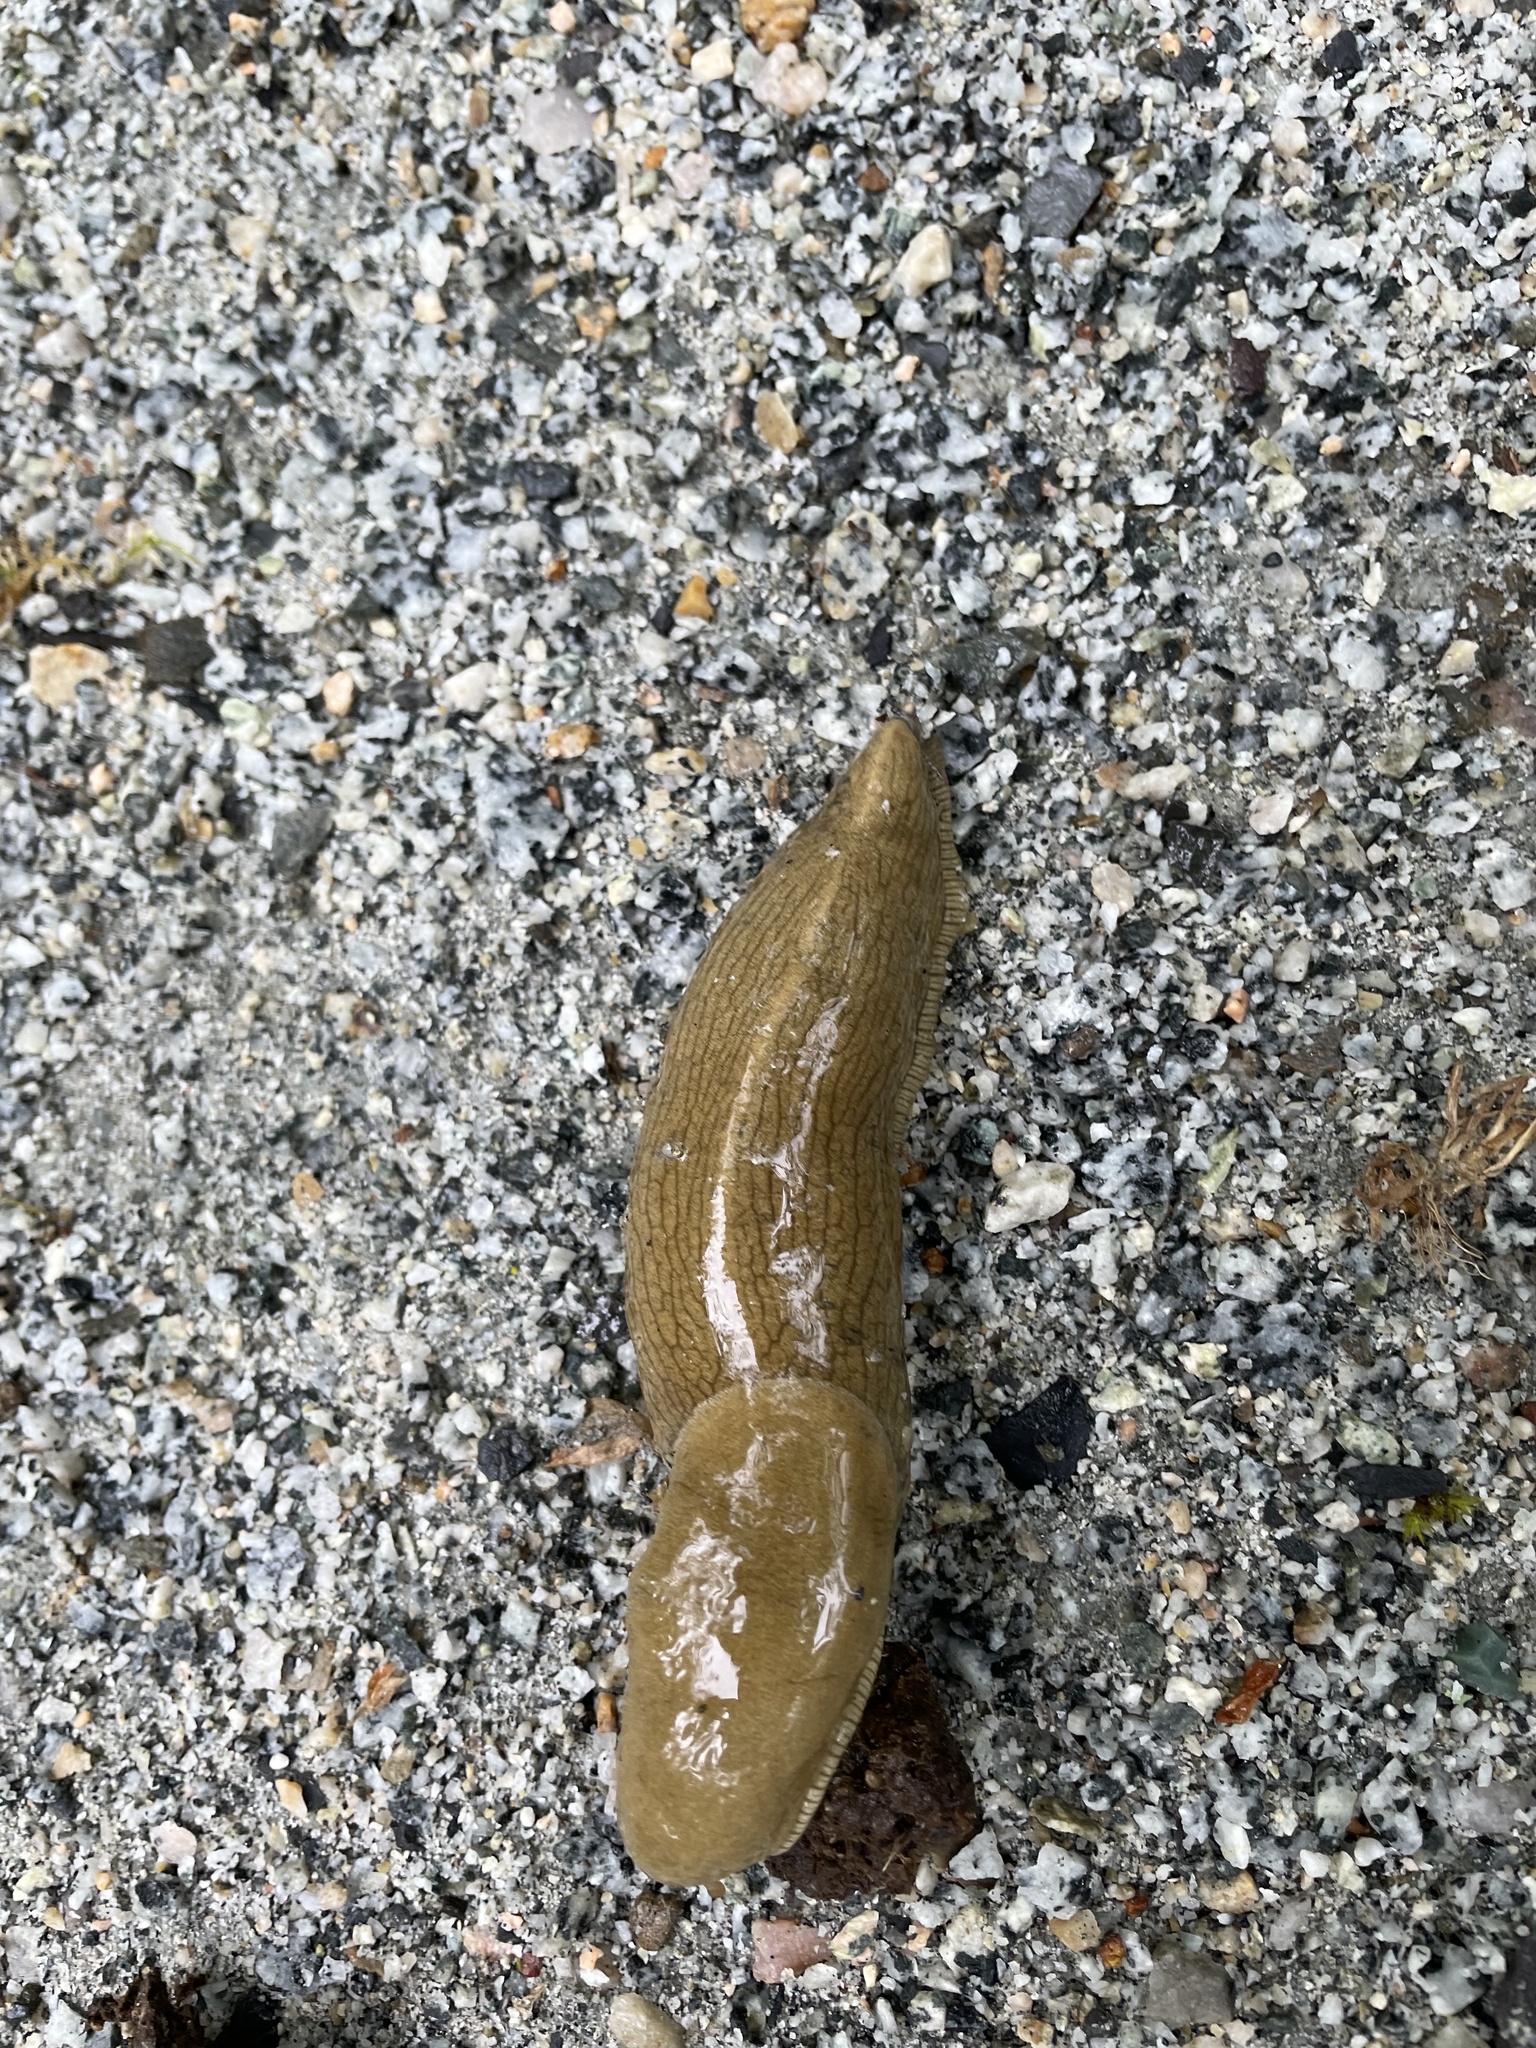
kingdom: Animalia
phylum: Mollusca
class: Gastropoda
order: Stylommatophora
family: Ariolimacidae
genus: Ariolimax
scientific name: Ariolimax columbianus
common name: Pacific banana slug
